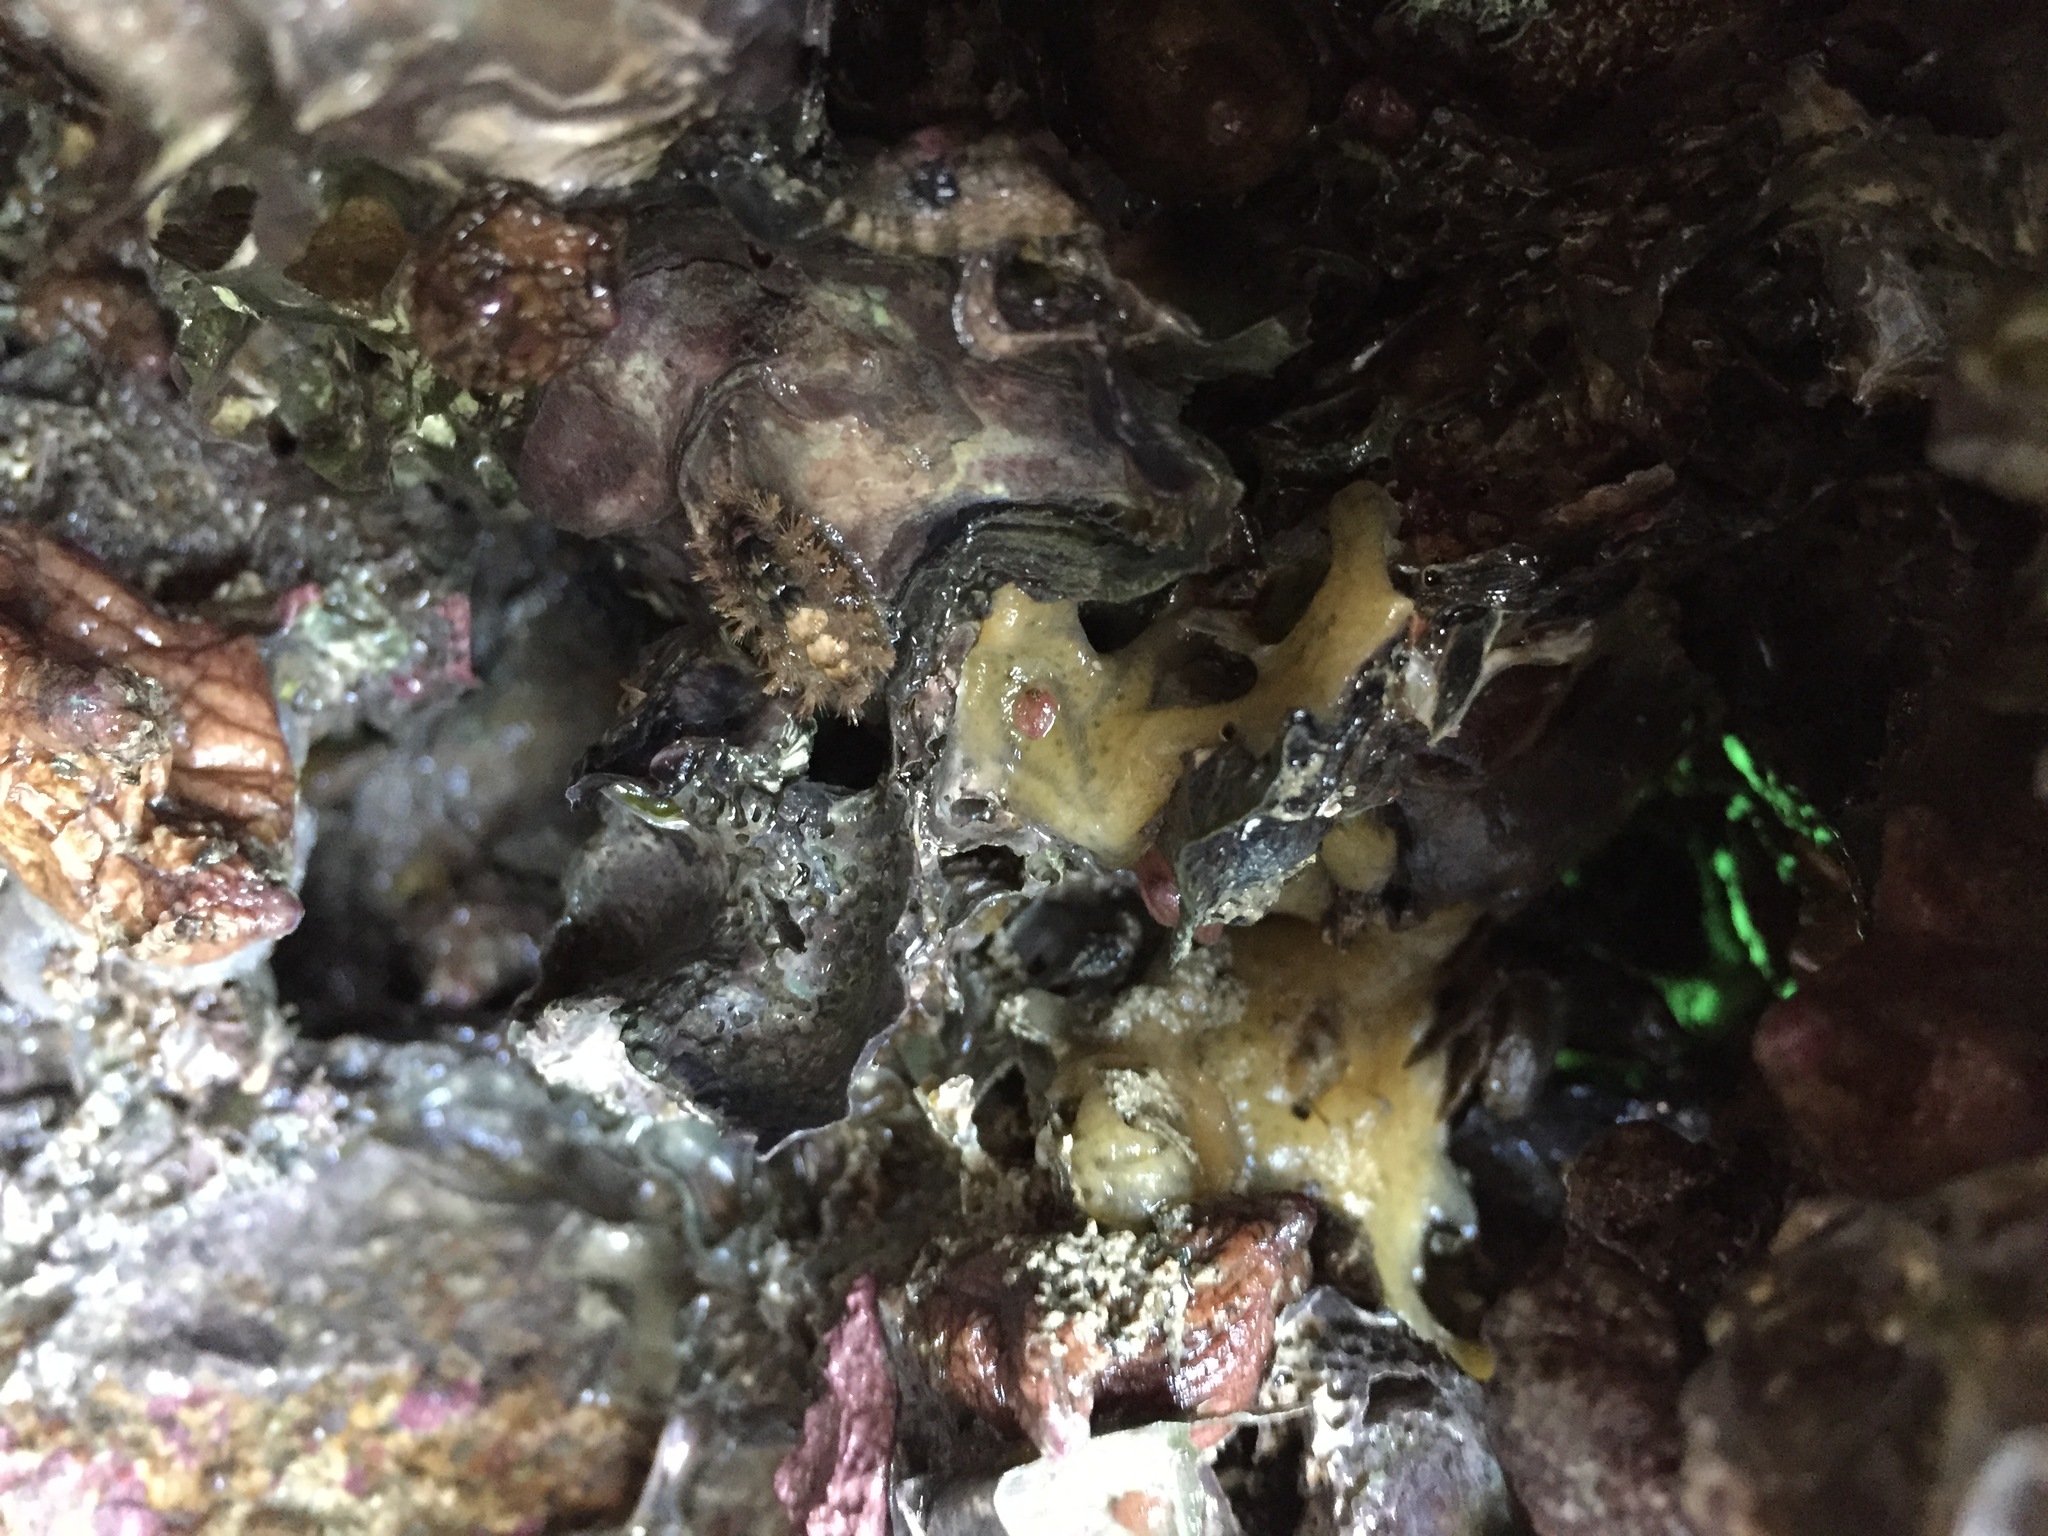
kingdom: Animalia
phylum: Mollusca
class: Polyplacophora
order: Chitonida
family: Acanthochitonidae
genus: Acanthochitona
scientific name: Acanthochitona zelandica
